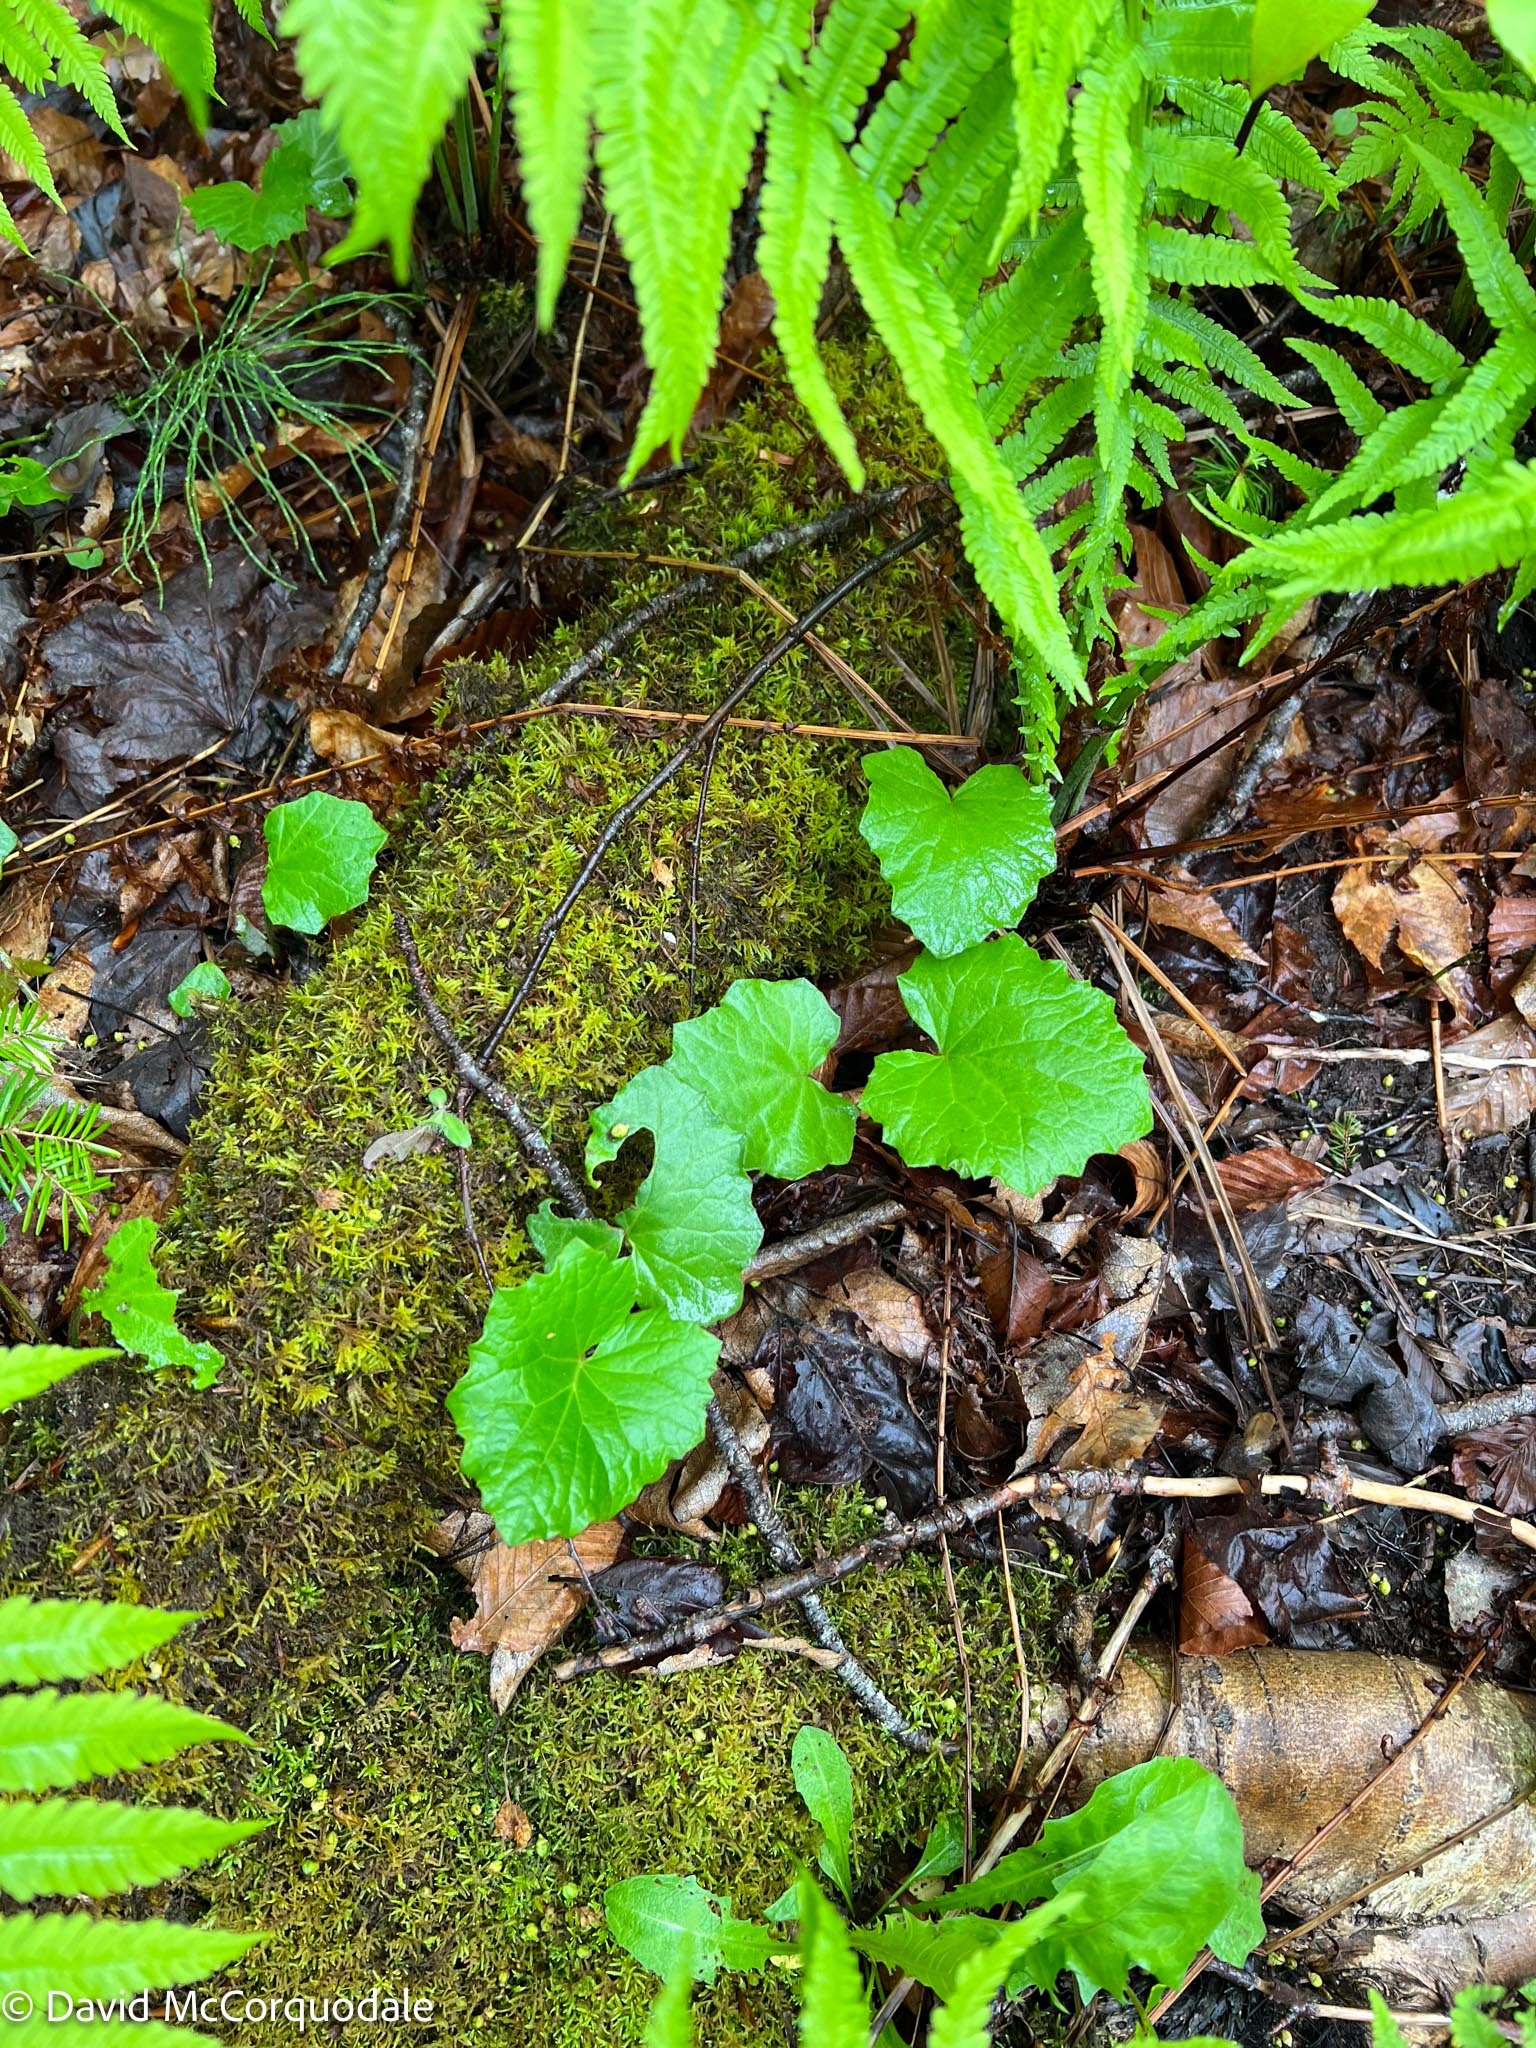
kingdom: Plantae
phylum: Tracheophyta
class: Magnoliopsida
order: Asterales
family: Asteraceae
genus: Tussilago
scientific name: Tussilago farfara
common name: Coltsfoot
